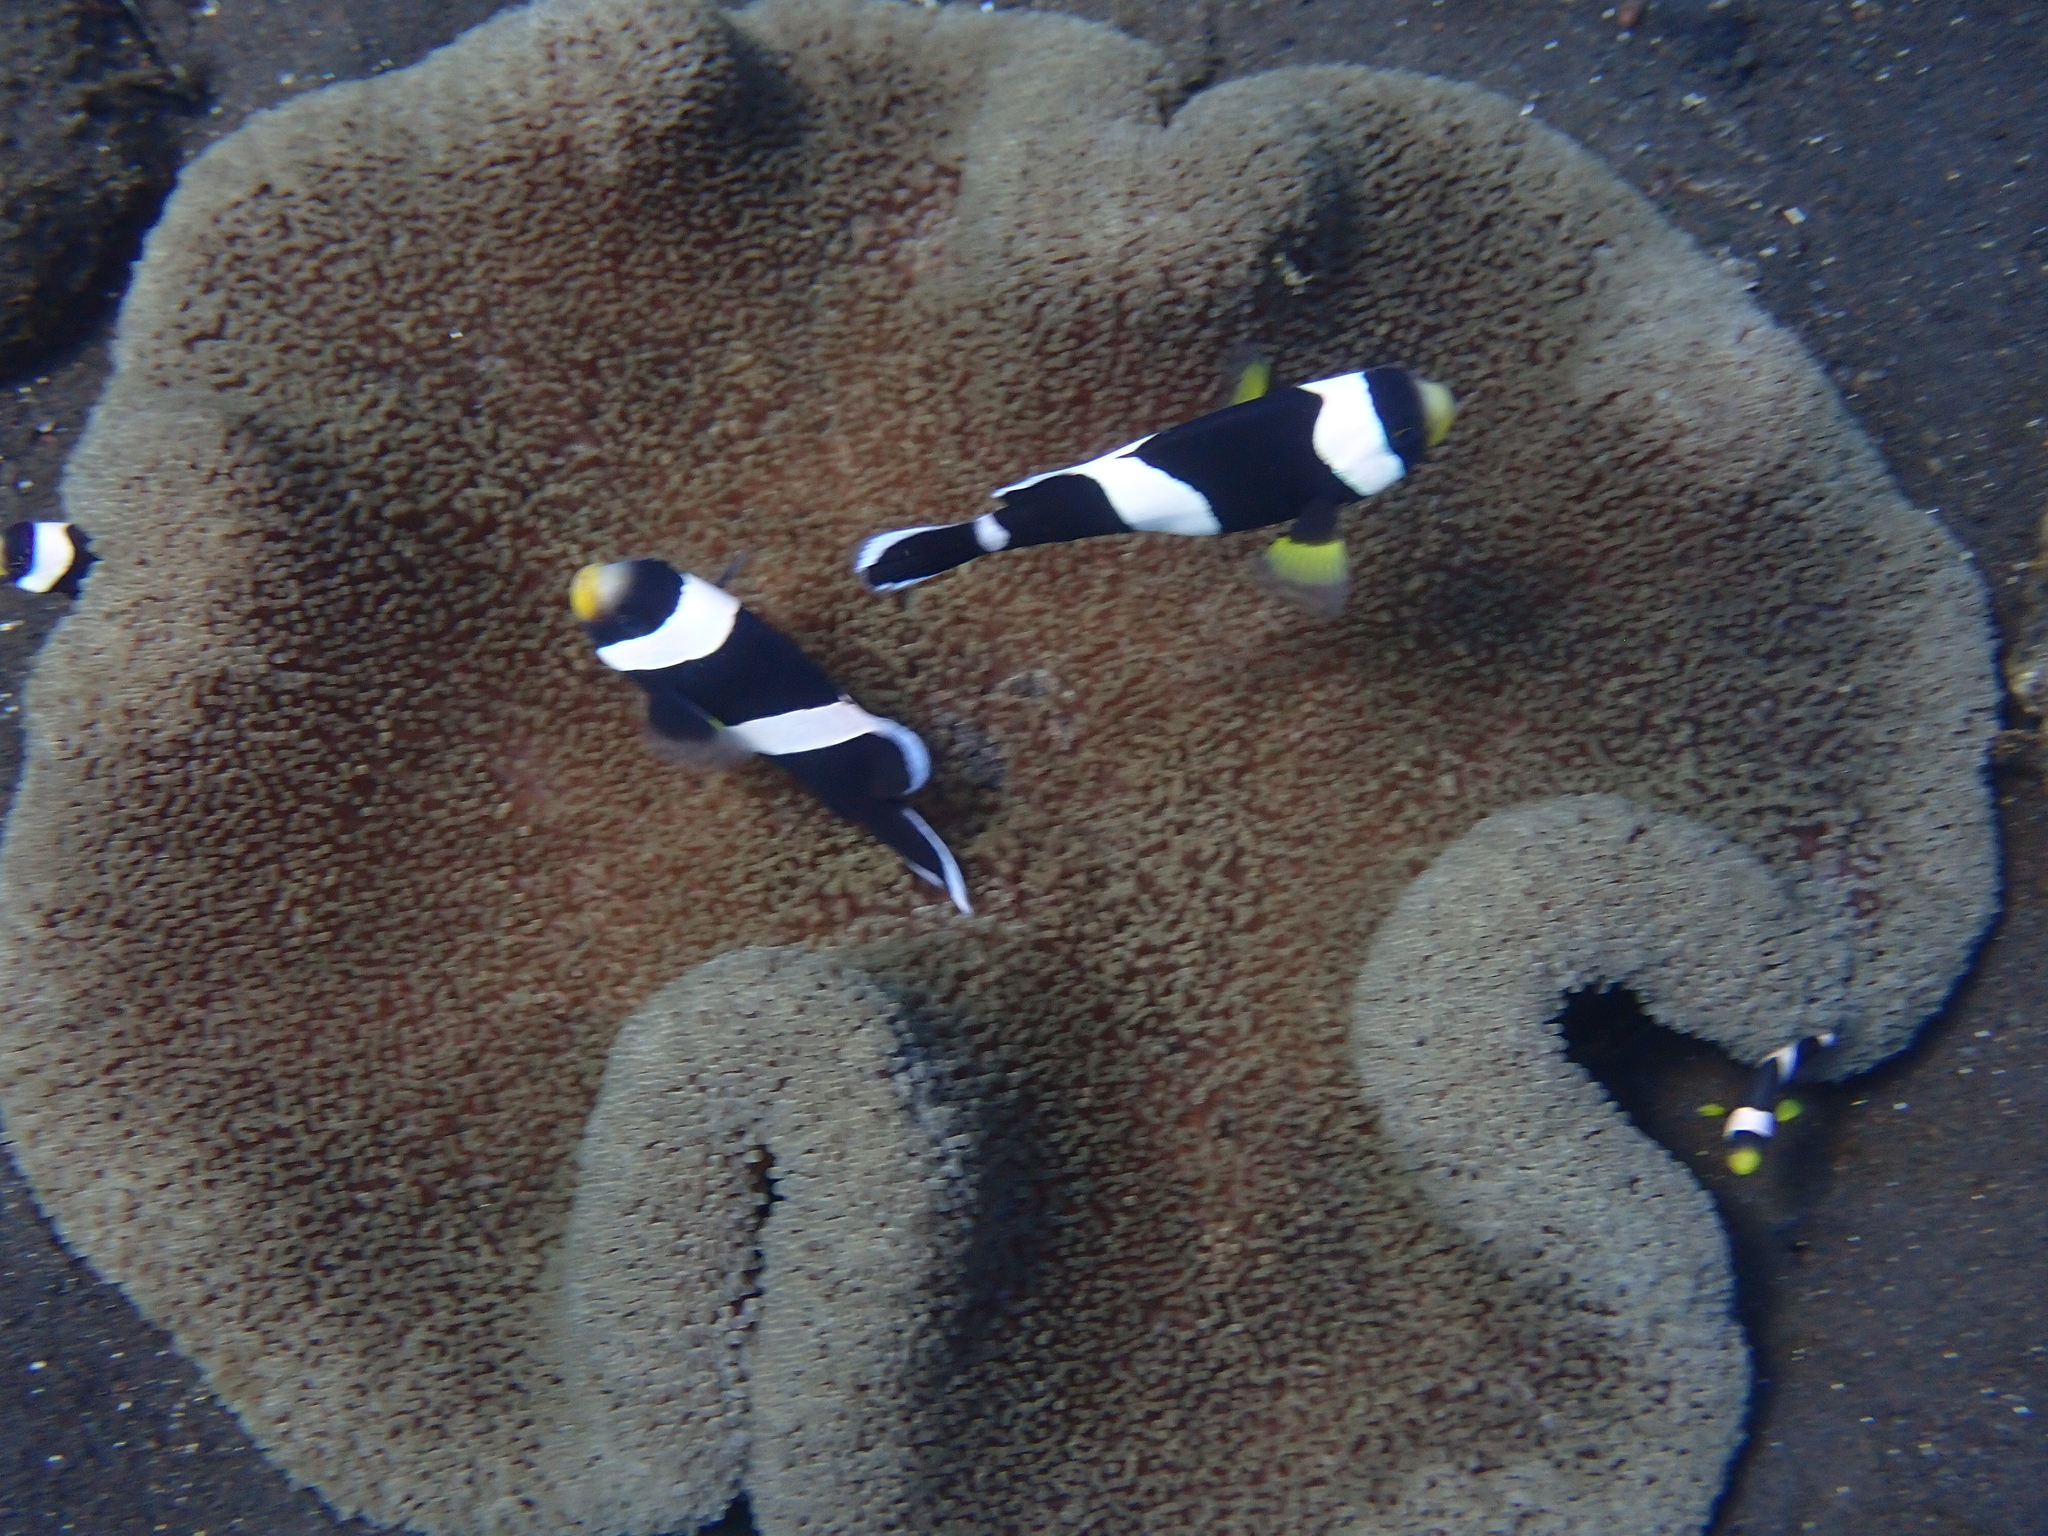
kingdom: Animalia
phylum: Chordata
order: Perciformes
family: Pomacentridae
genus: Amphiprion
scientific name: Amphiprion polymnus
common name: Saddleback anemonefish
